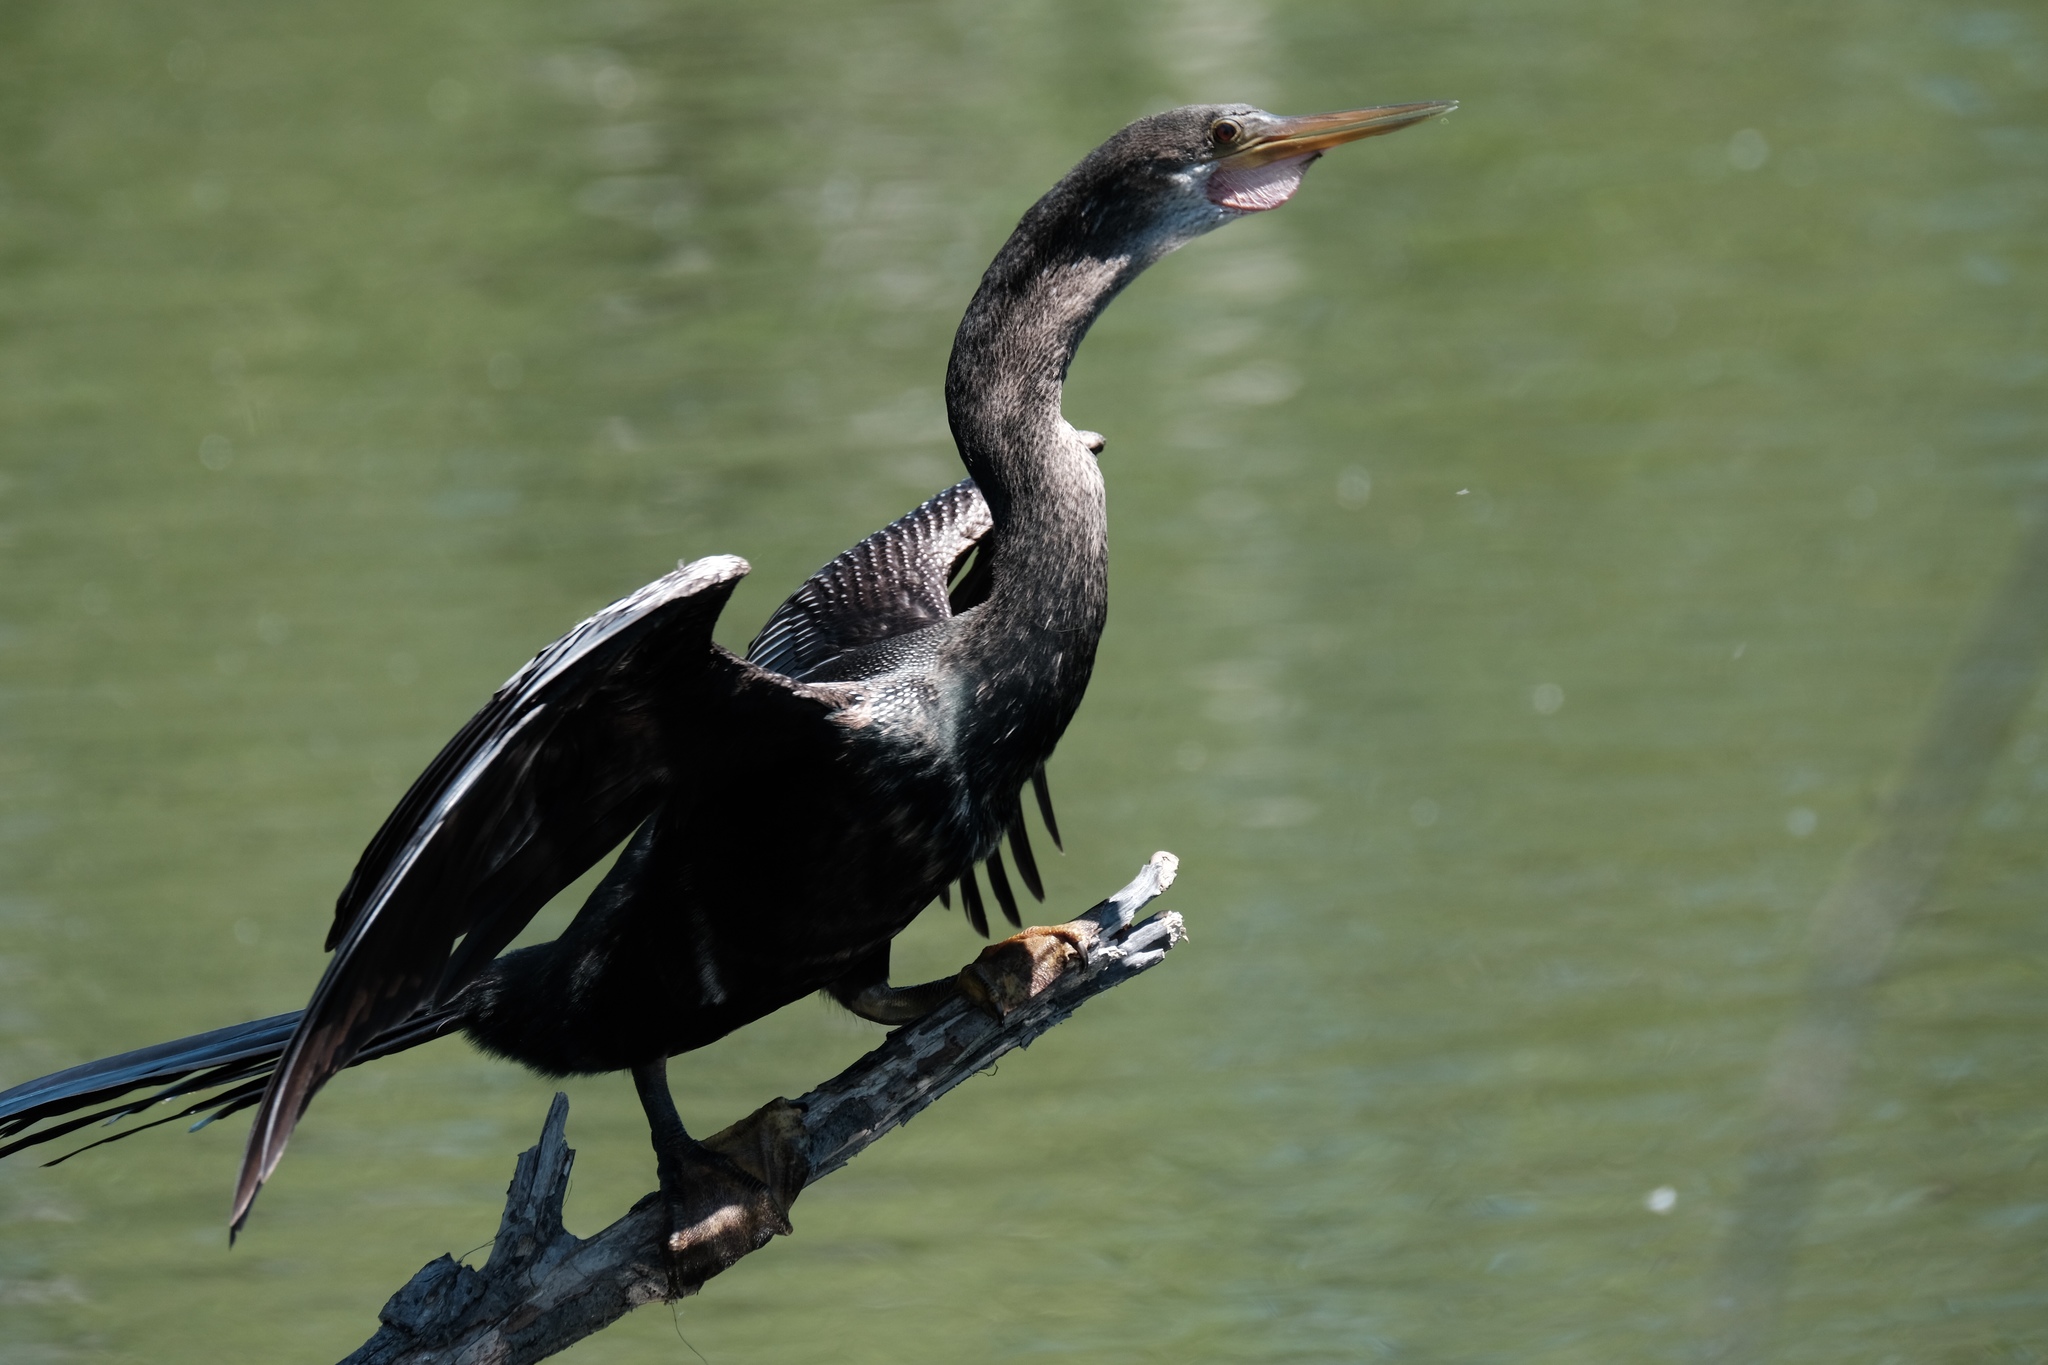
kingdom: Animalia
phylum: Chordata
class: Aves
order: Suliformes
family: Anhingidae
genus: Anhinga
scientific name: Anhinga anhinga
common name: Anhinga
